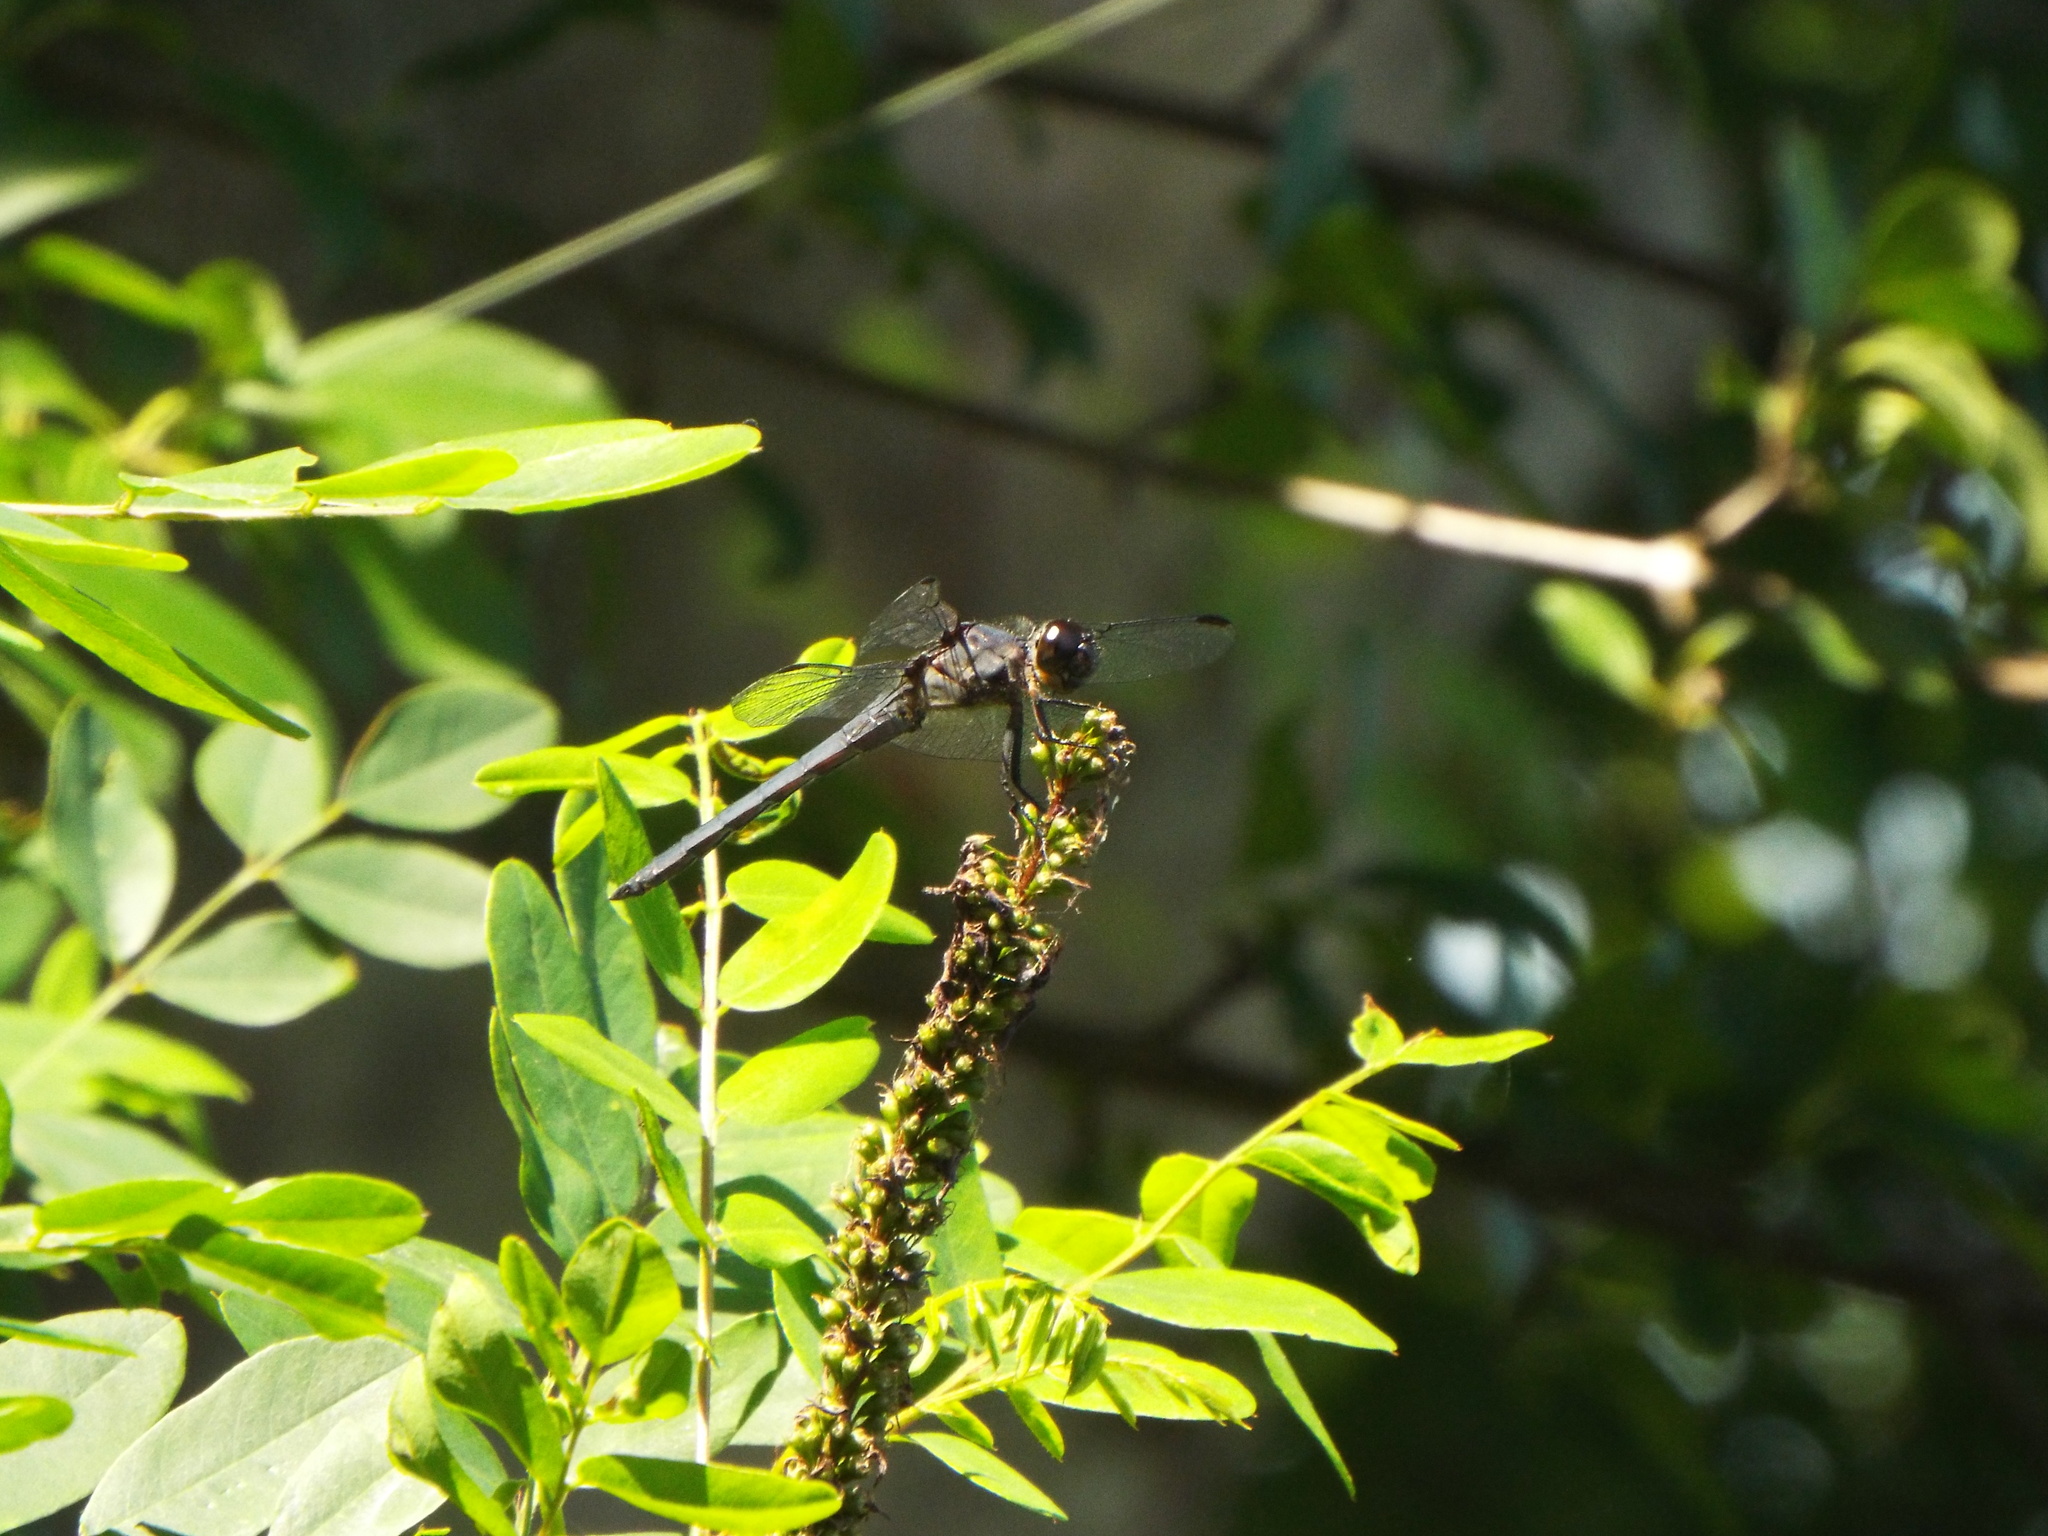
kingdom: Animalia
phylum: Arthropoda
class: Insecta
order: Odonata
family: Libellulidae
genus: Libellula
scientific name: Libellula incesta
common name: Slaty skimmer
